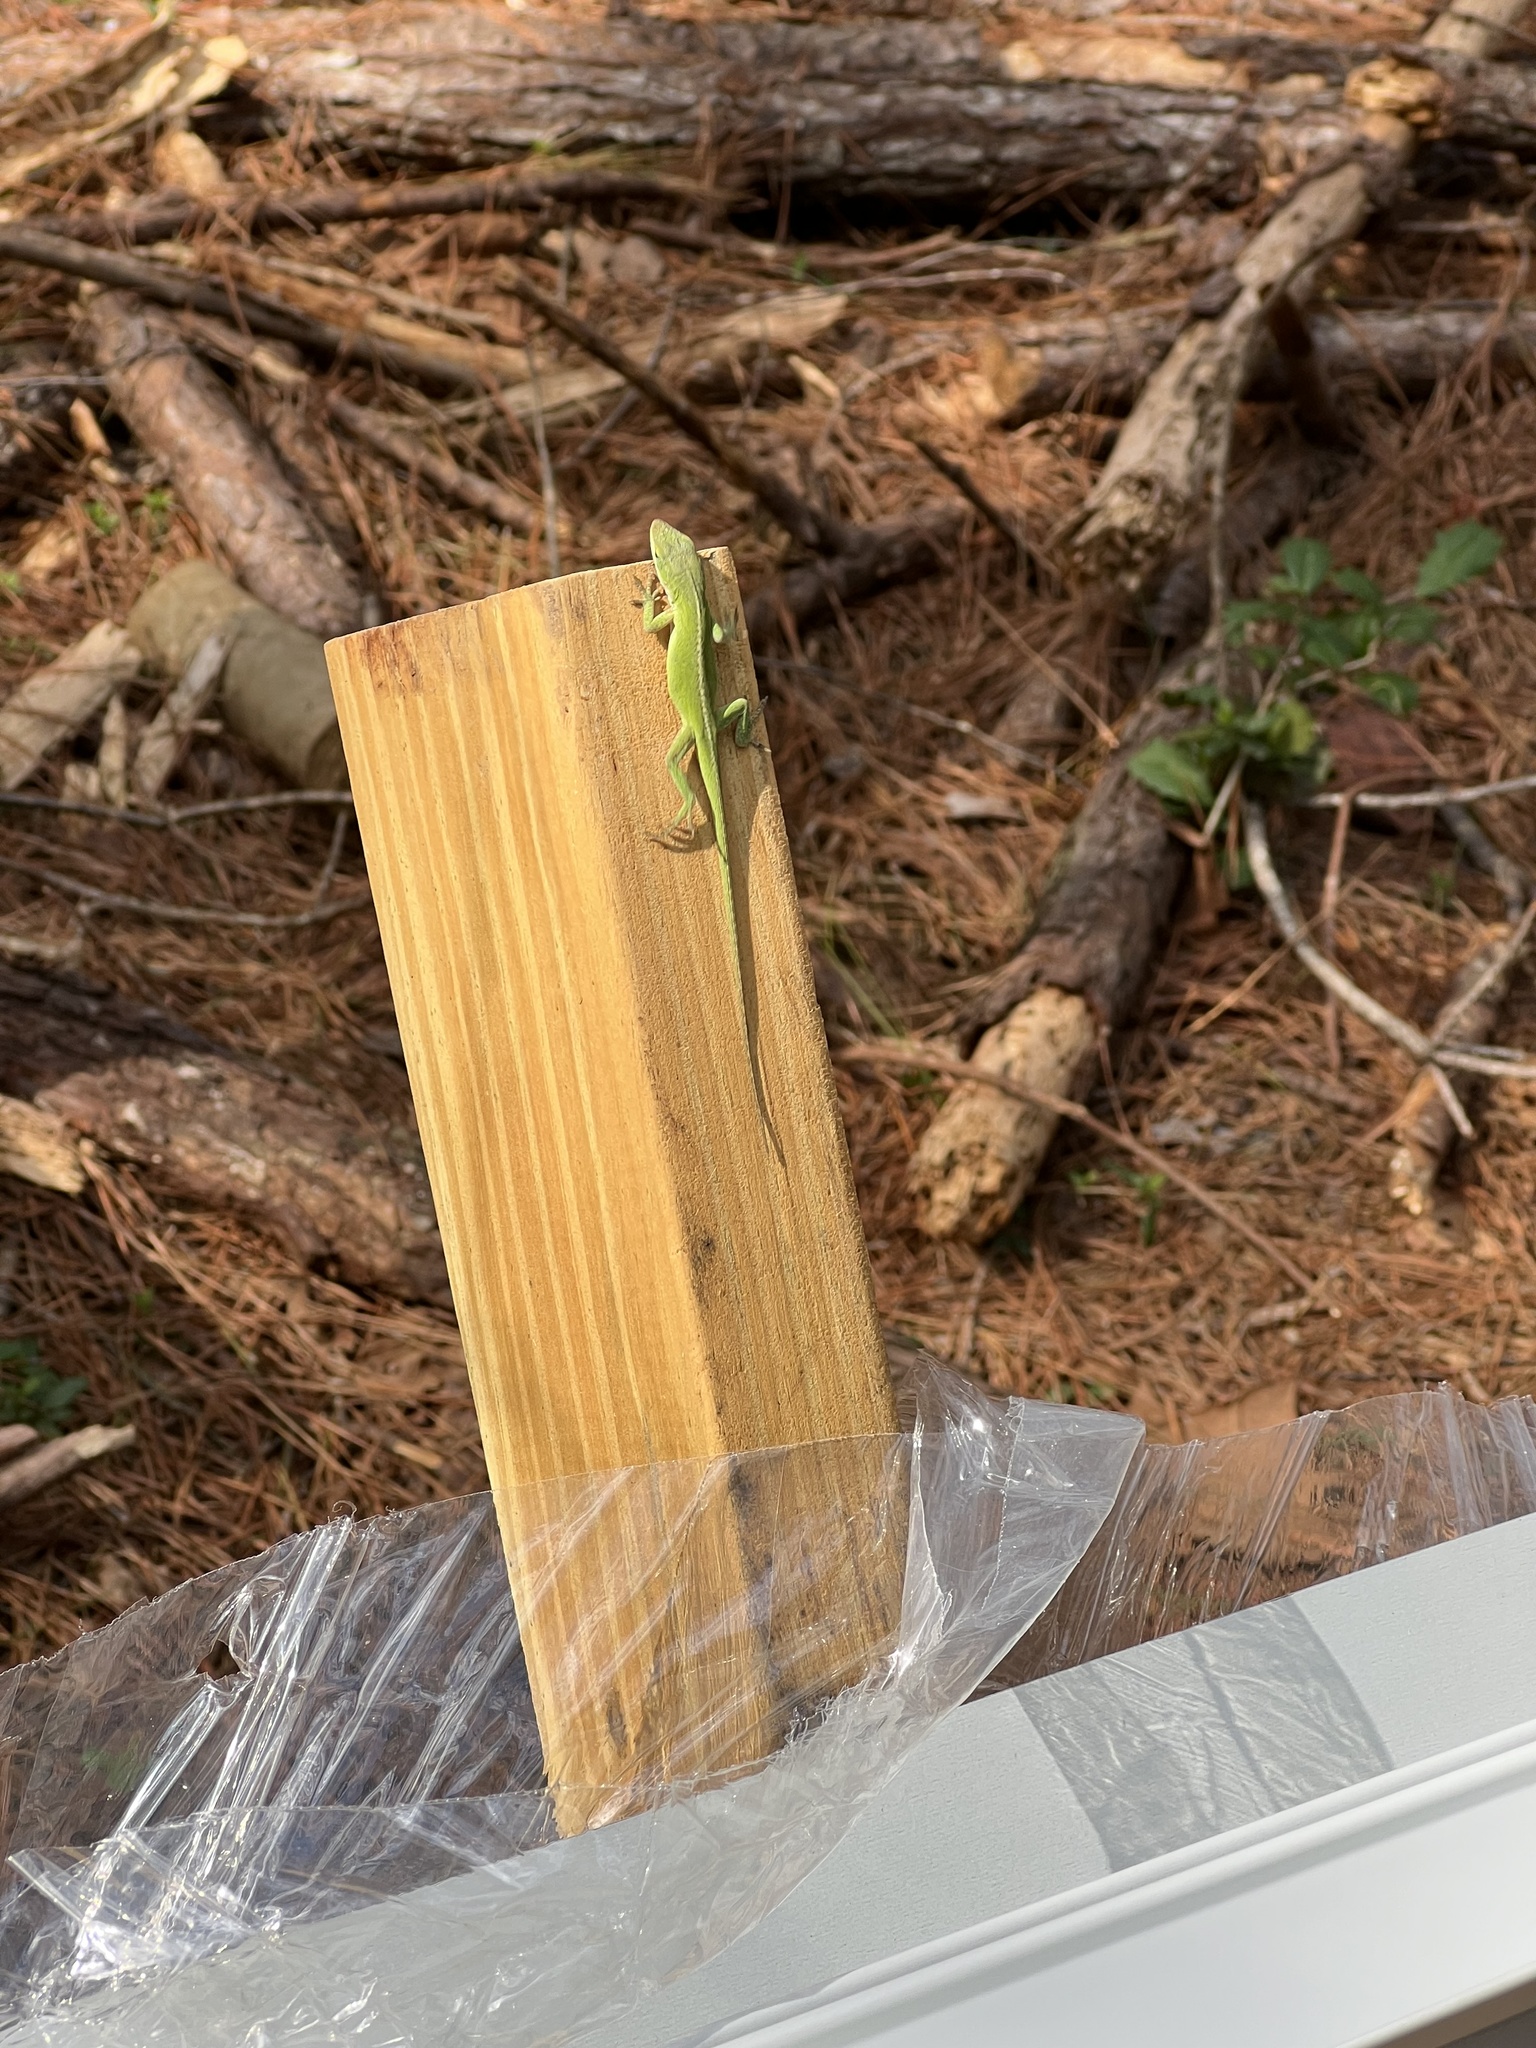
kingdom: Animalia
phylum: Chordata
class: Squamata
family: Dactyloidae
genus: Anolis
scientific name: Anolis carolinensis
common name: Green anole
